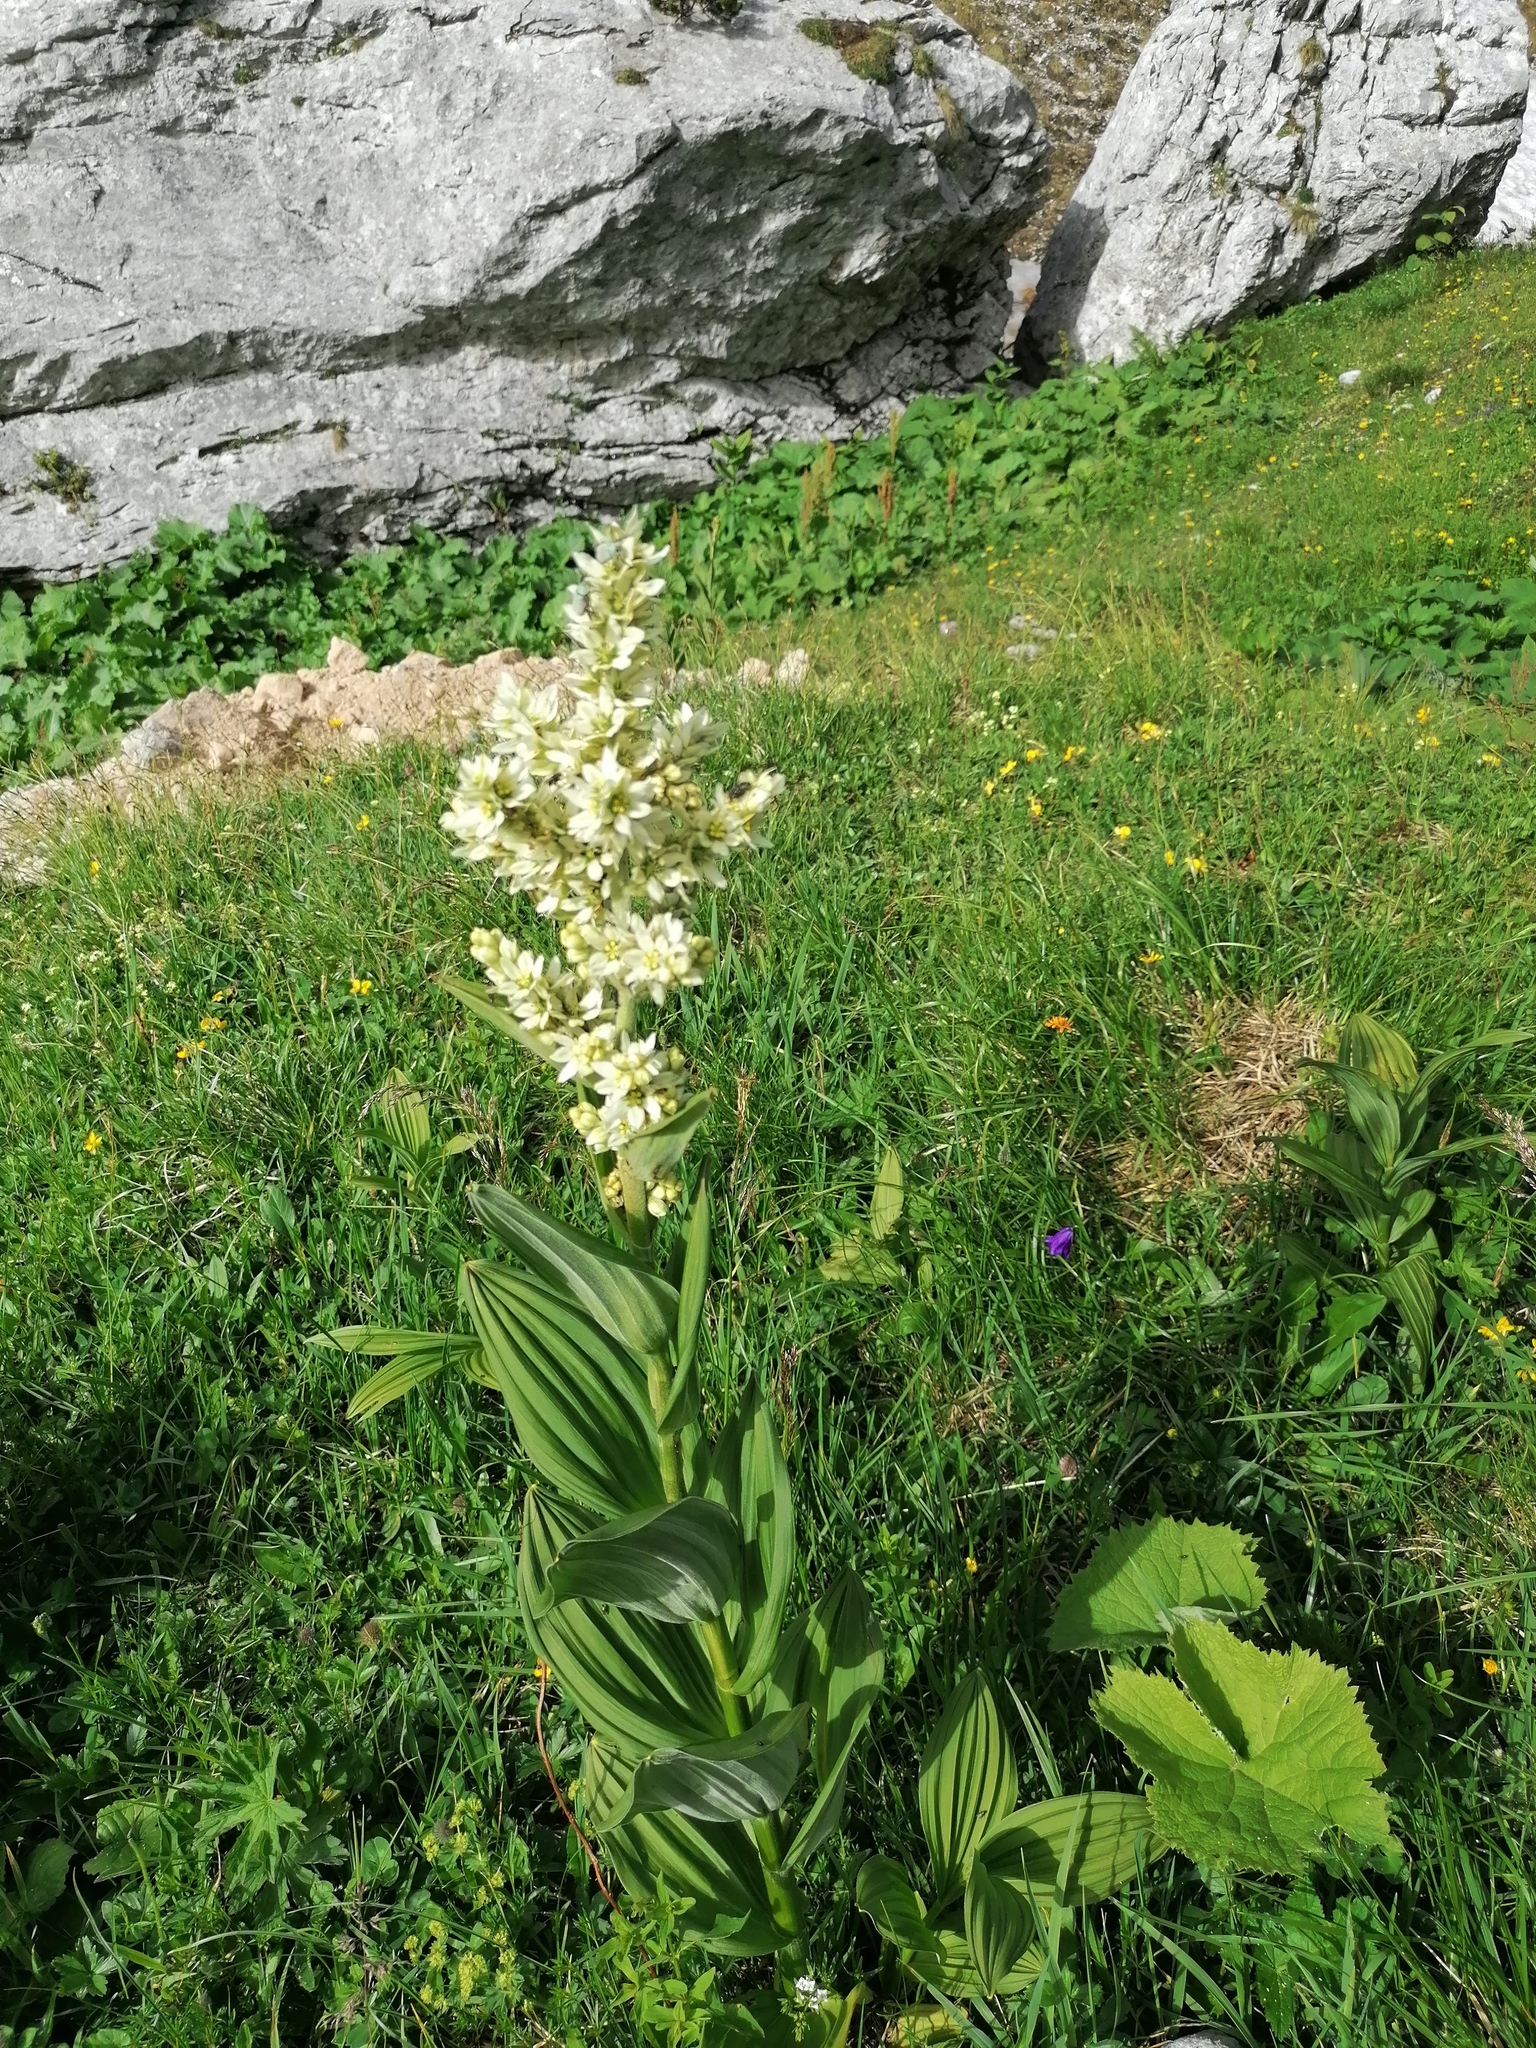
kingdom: Plantae
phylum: Tracheophyta
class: Liliopsida
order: Liliales
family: Melanthiaceae
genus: Veratrum
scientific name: Veratrum album
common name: White veratrum
